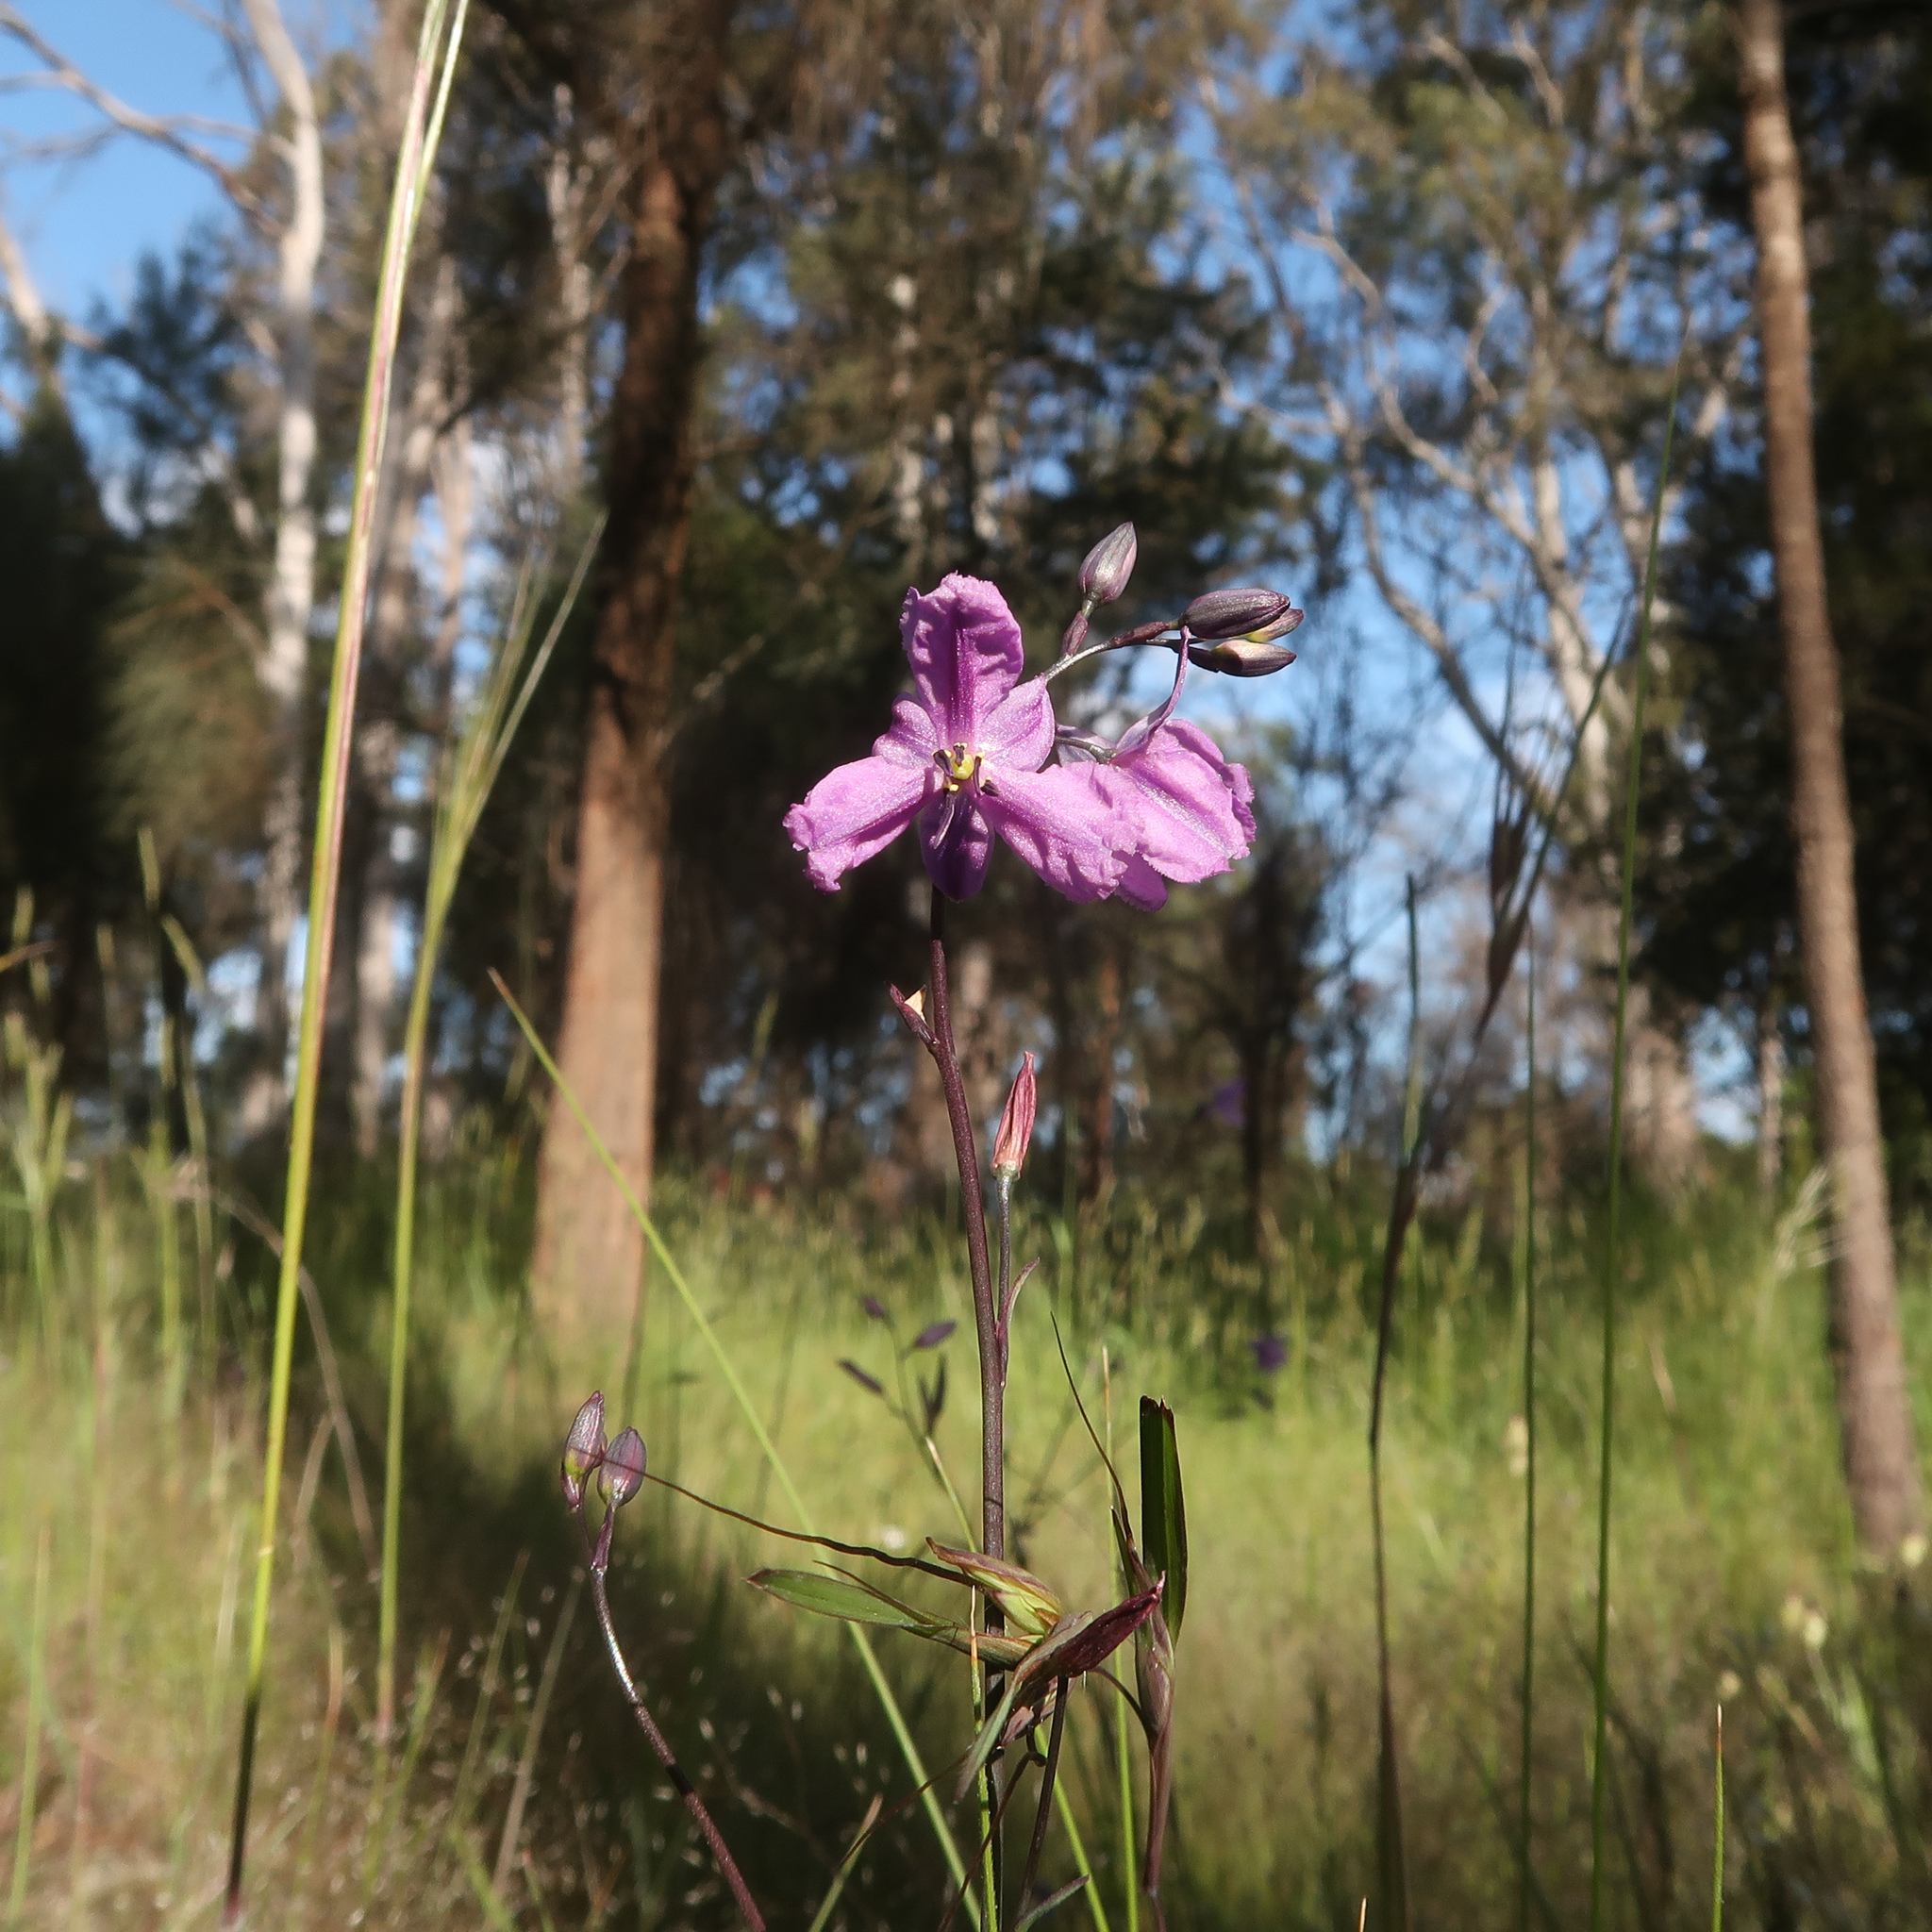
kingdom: Plantae
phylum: Tracheophyta
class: Liliopsida
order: Asparagales
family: Asparagaceae
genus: Arthropodium
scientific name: Arthropodium strictum
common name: Chocolate-lily
